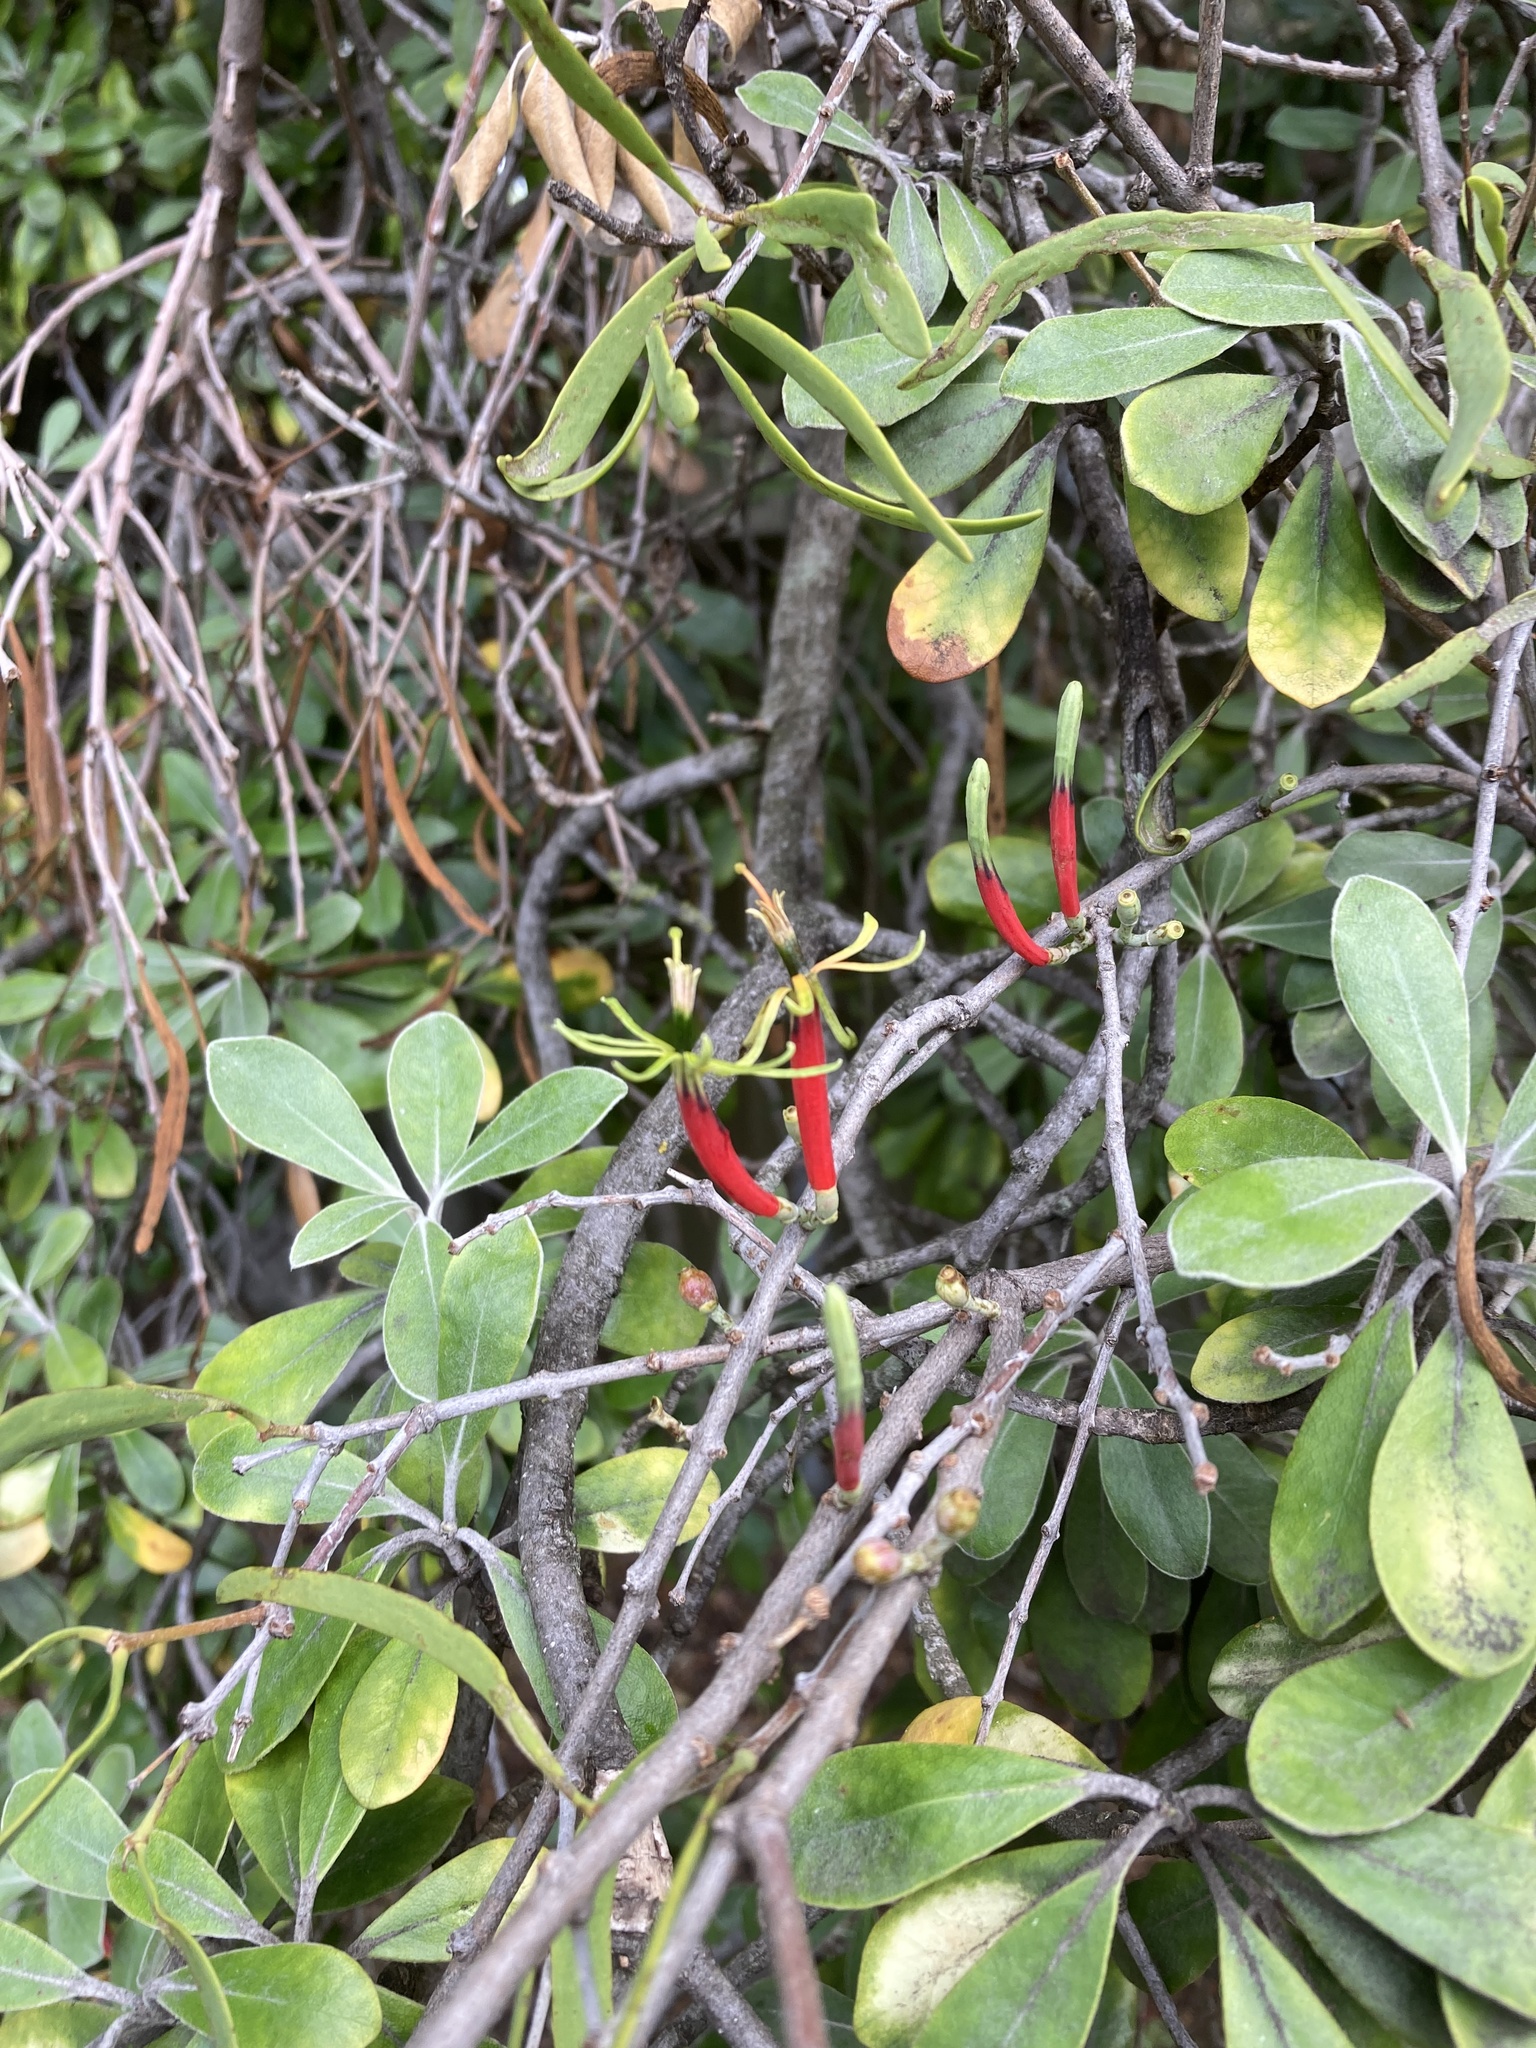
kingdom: Plantae
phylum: Tracheophyta
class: Magnoliopsida
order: Santalales
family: Loranthaceae
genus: Lysiana
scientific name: Lysiana exocarpi
